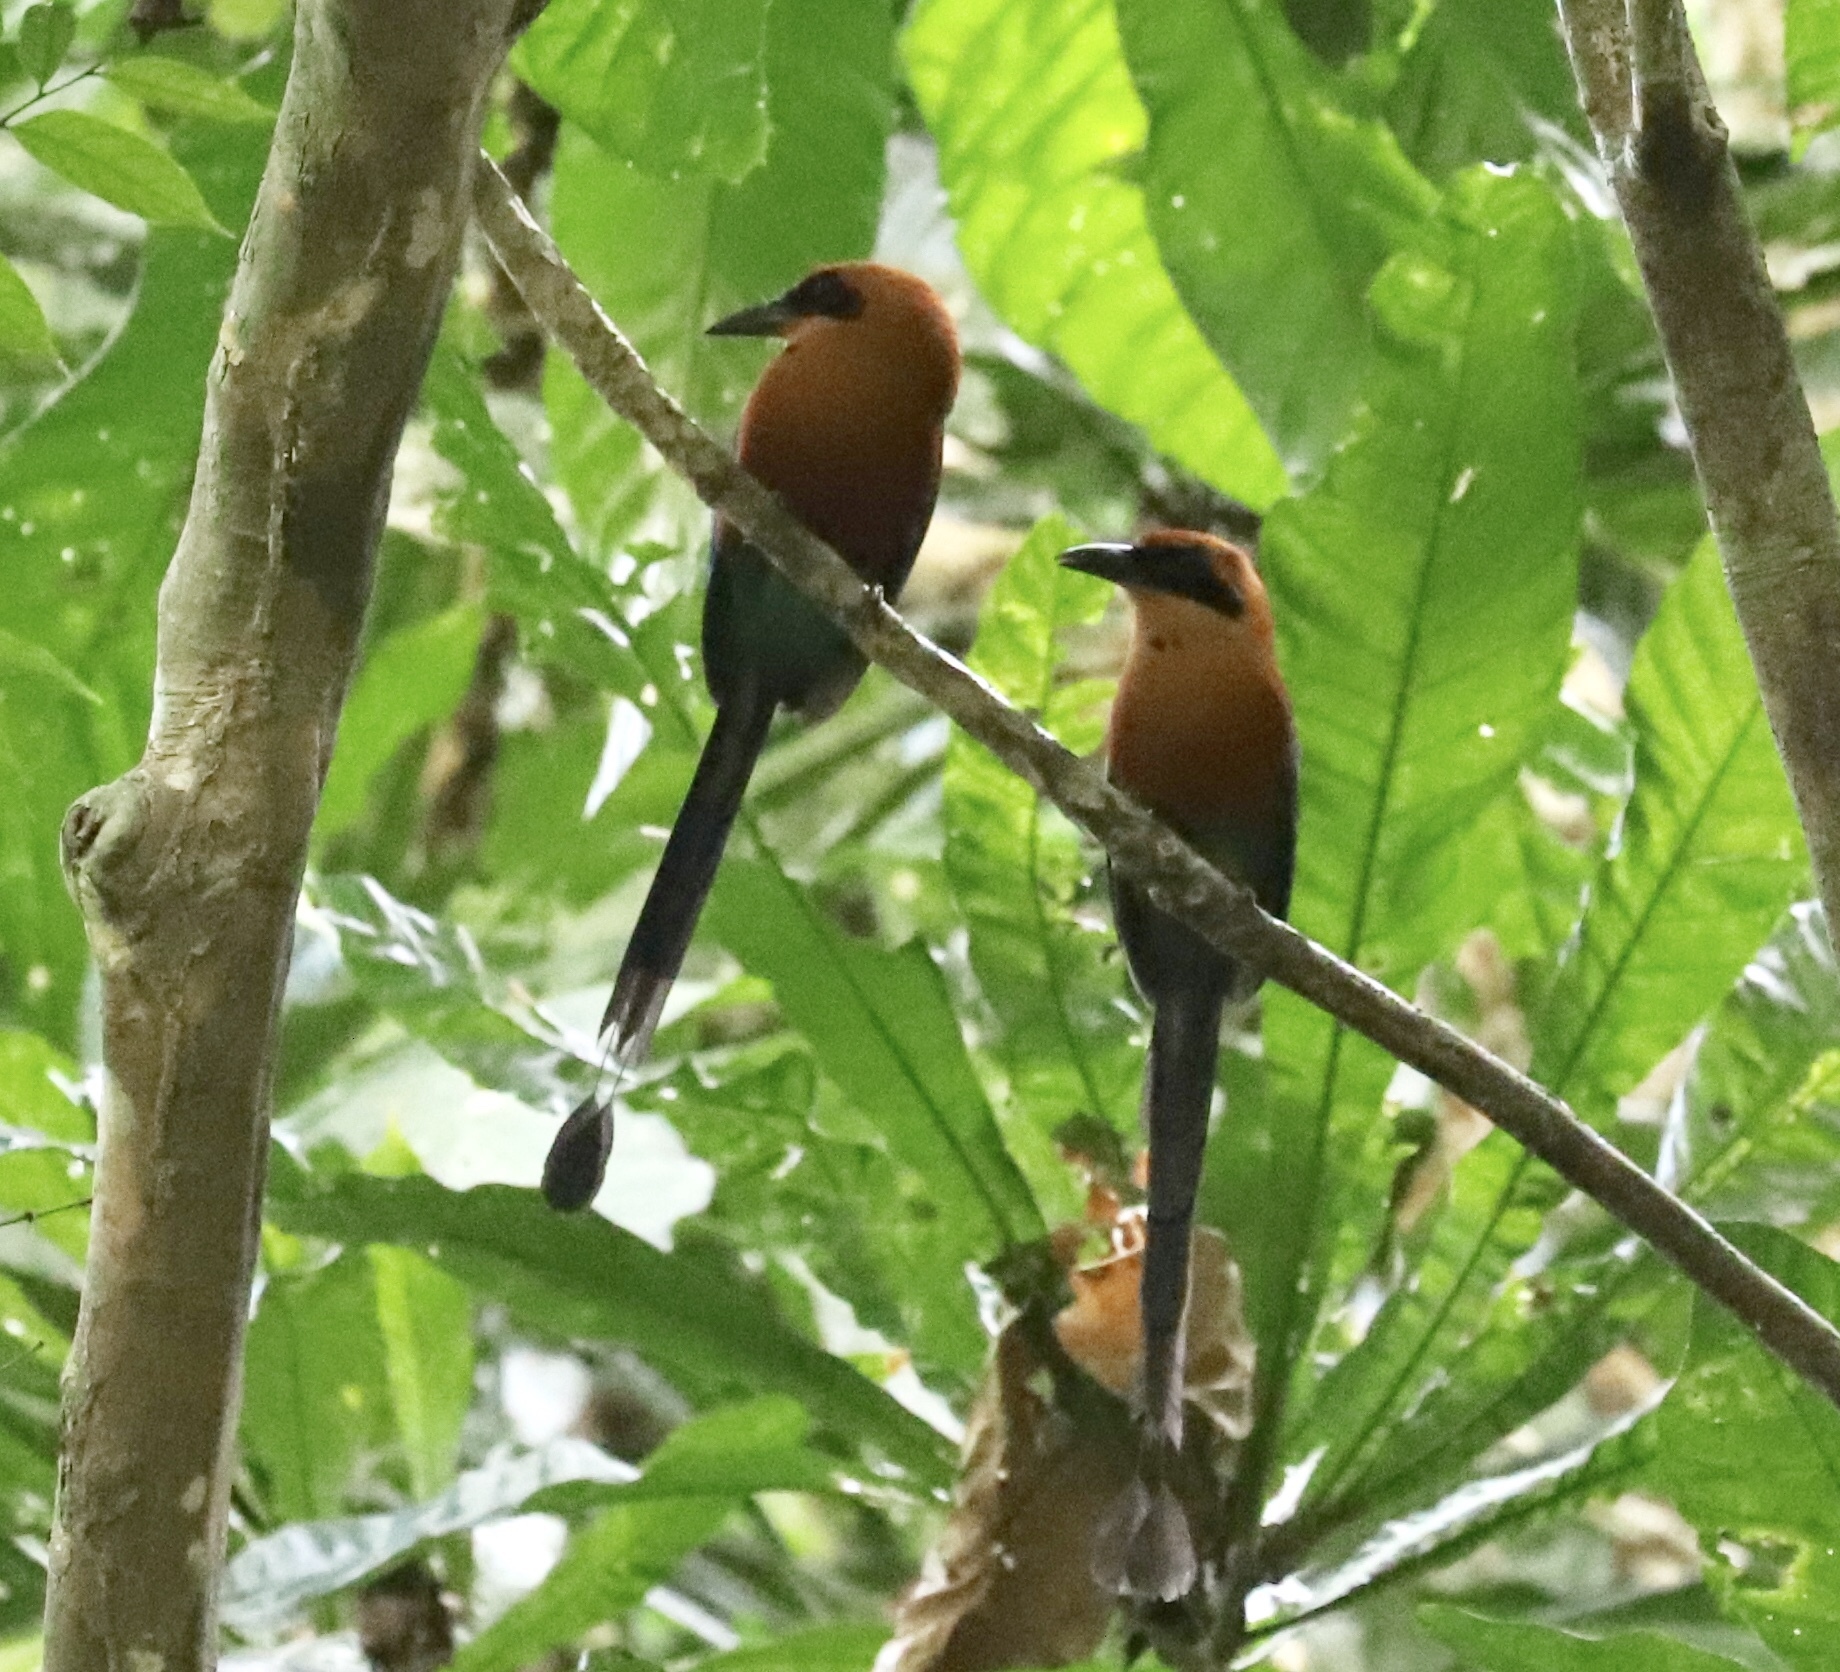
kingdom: Animalia
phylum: Chordata
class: Aves
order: Coraciiformes
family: Momotidae
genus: Baryphthengus
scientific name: Baryphthengus martii
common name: Rufous motmot
